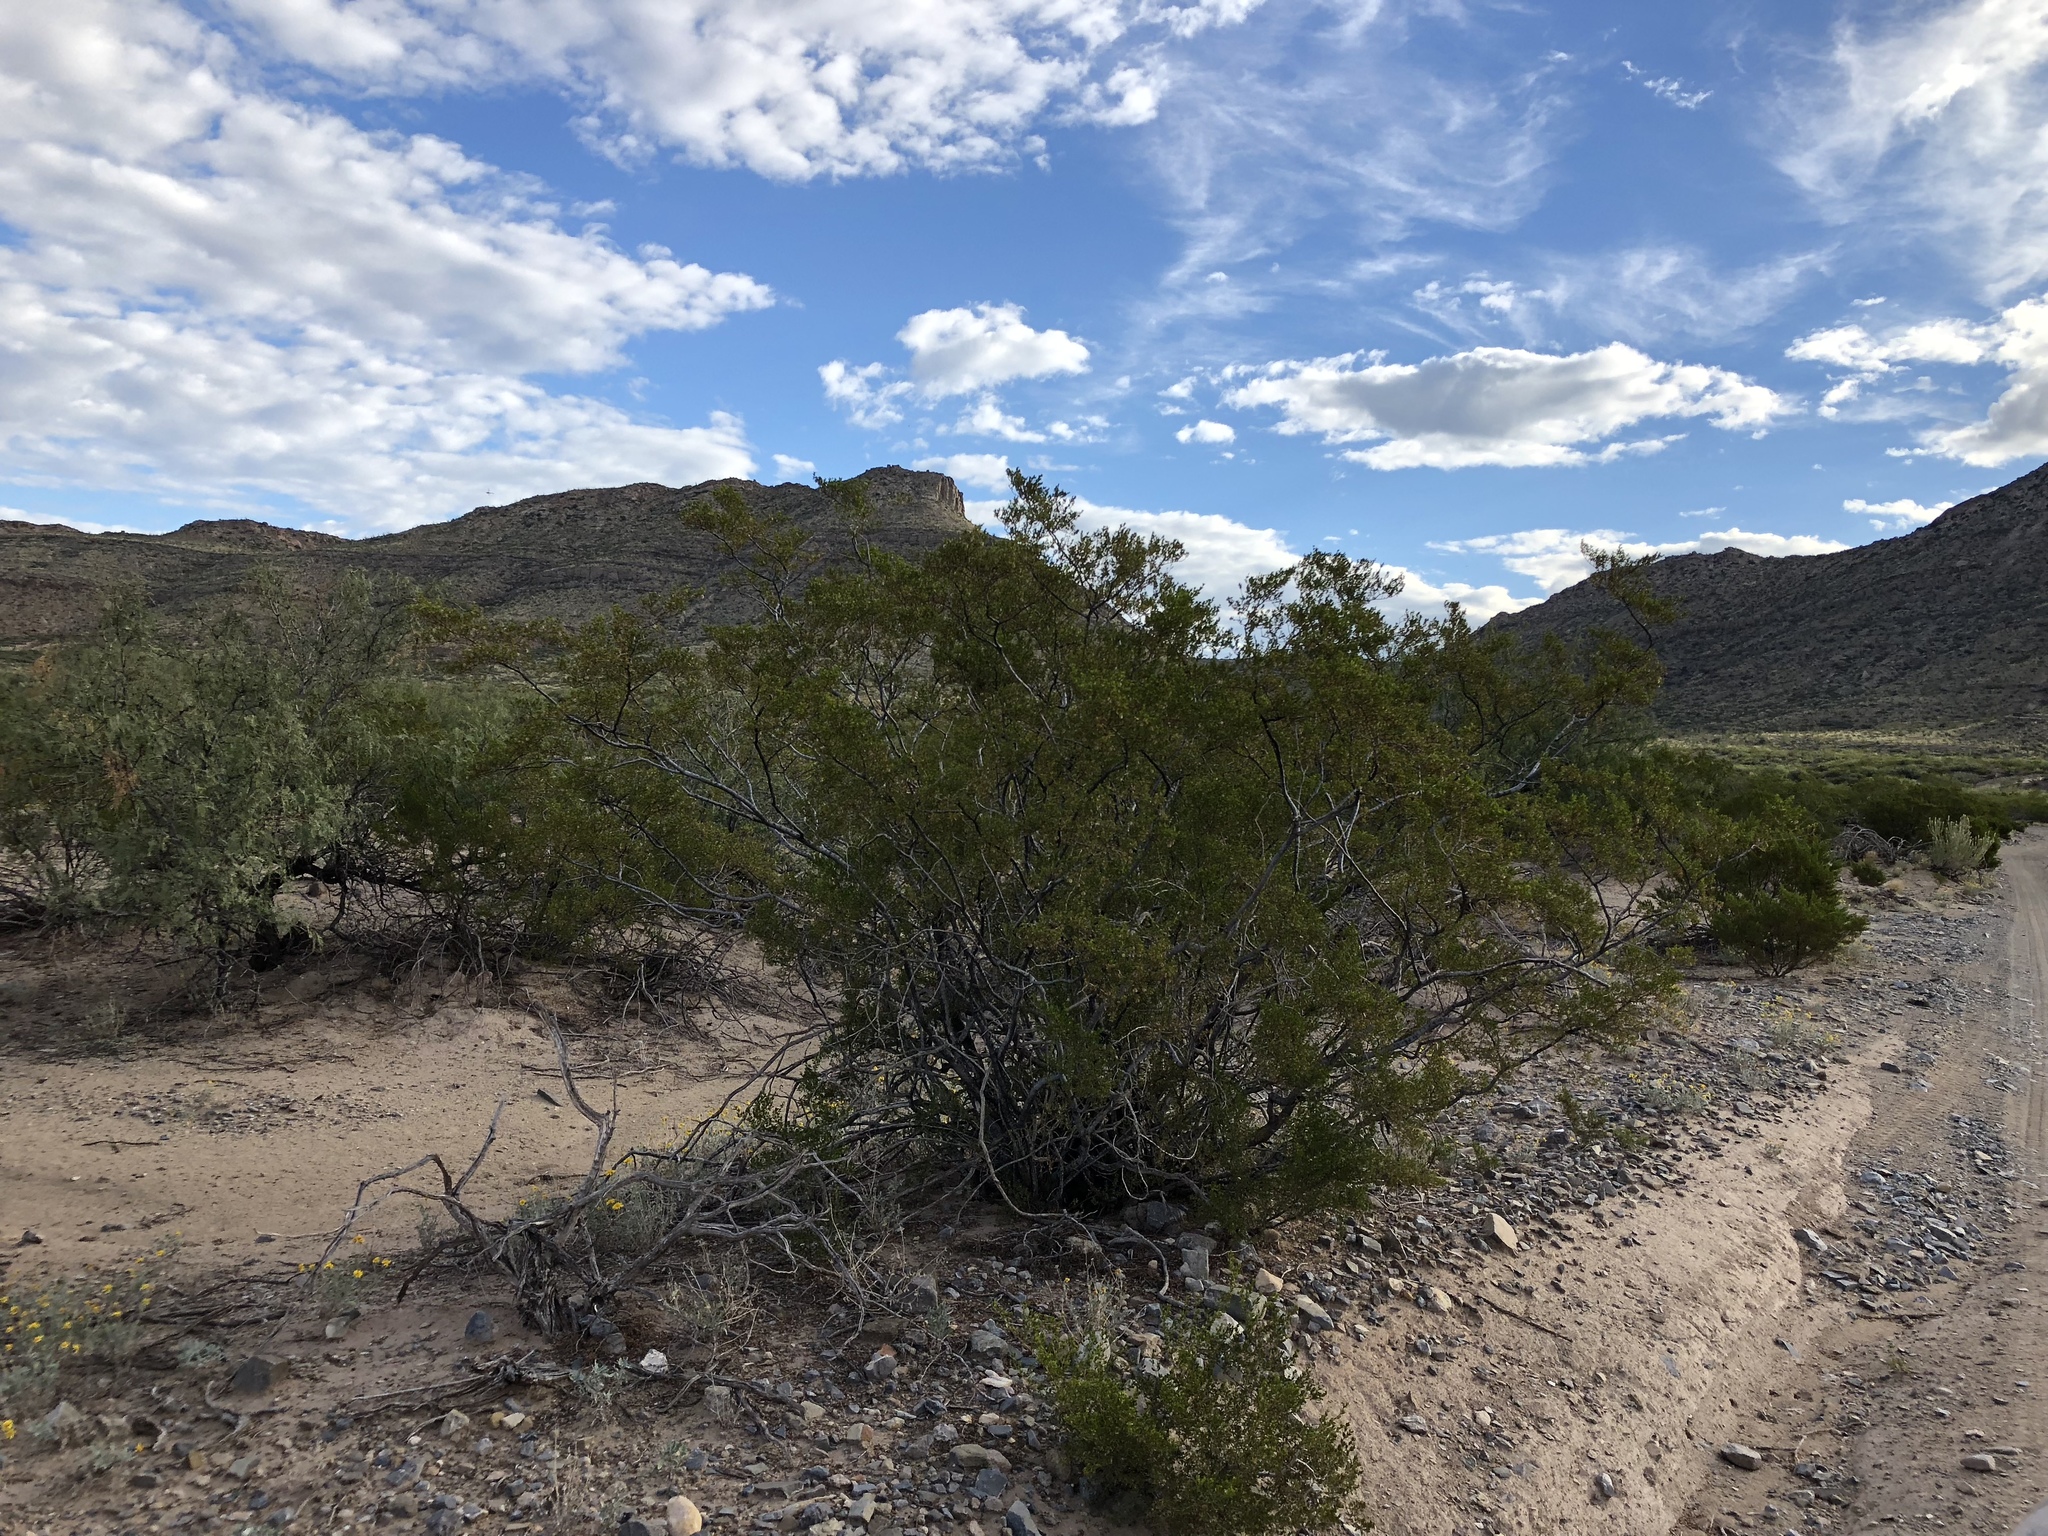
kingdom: Plantae
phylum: Tracheophyta
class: Magnoliopsida
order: Zygophyllales
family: Zygophyllaceae
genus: Larrea
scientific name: Larrea tridentata
